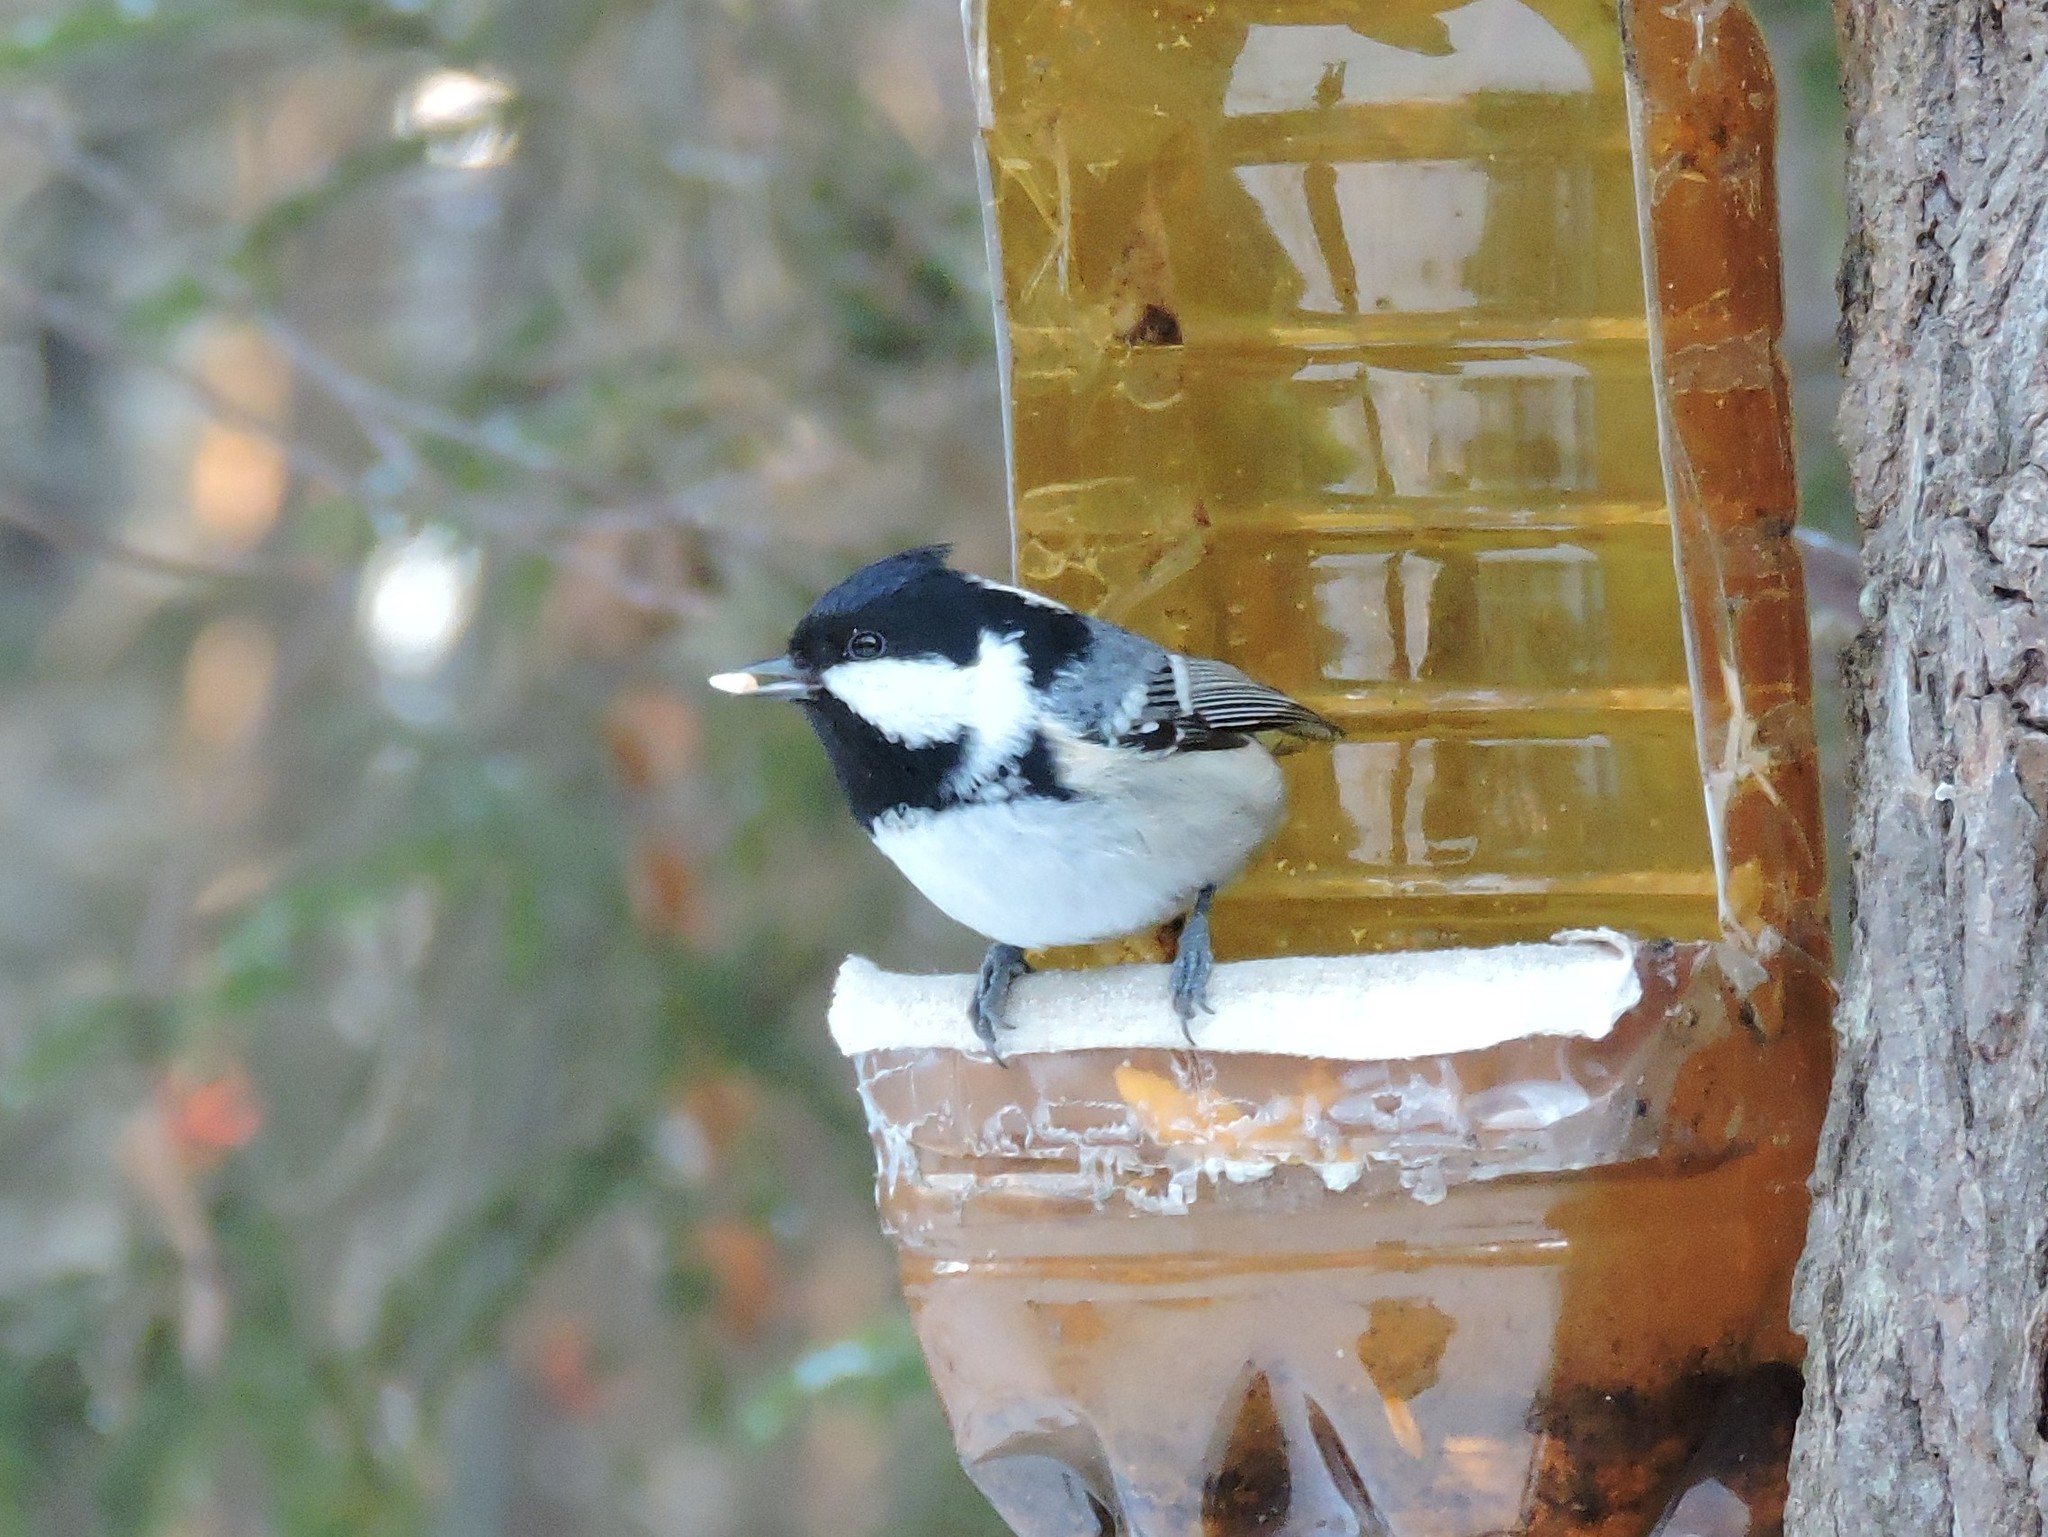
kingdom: Animalia
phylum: Chordata
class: Aves
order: Passeriformes
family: Paridae
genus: Periparus
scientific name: Periparus ater
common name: Coal tit
